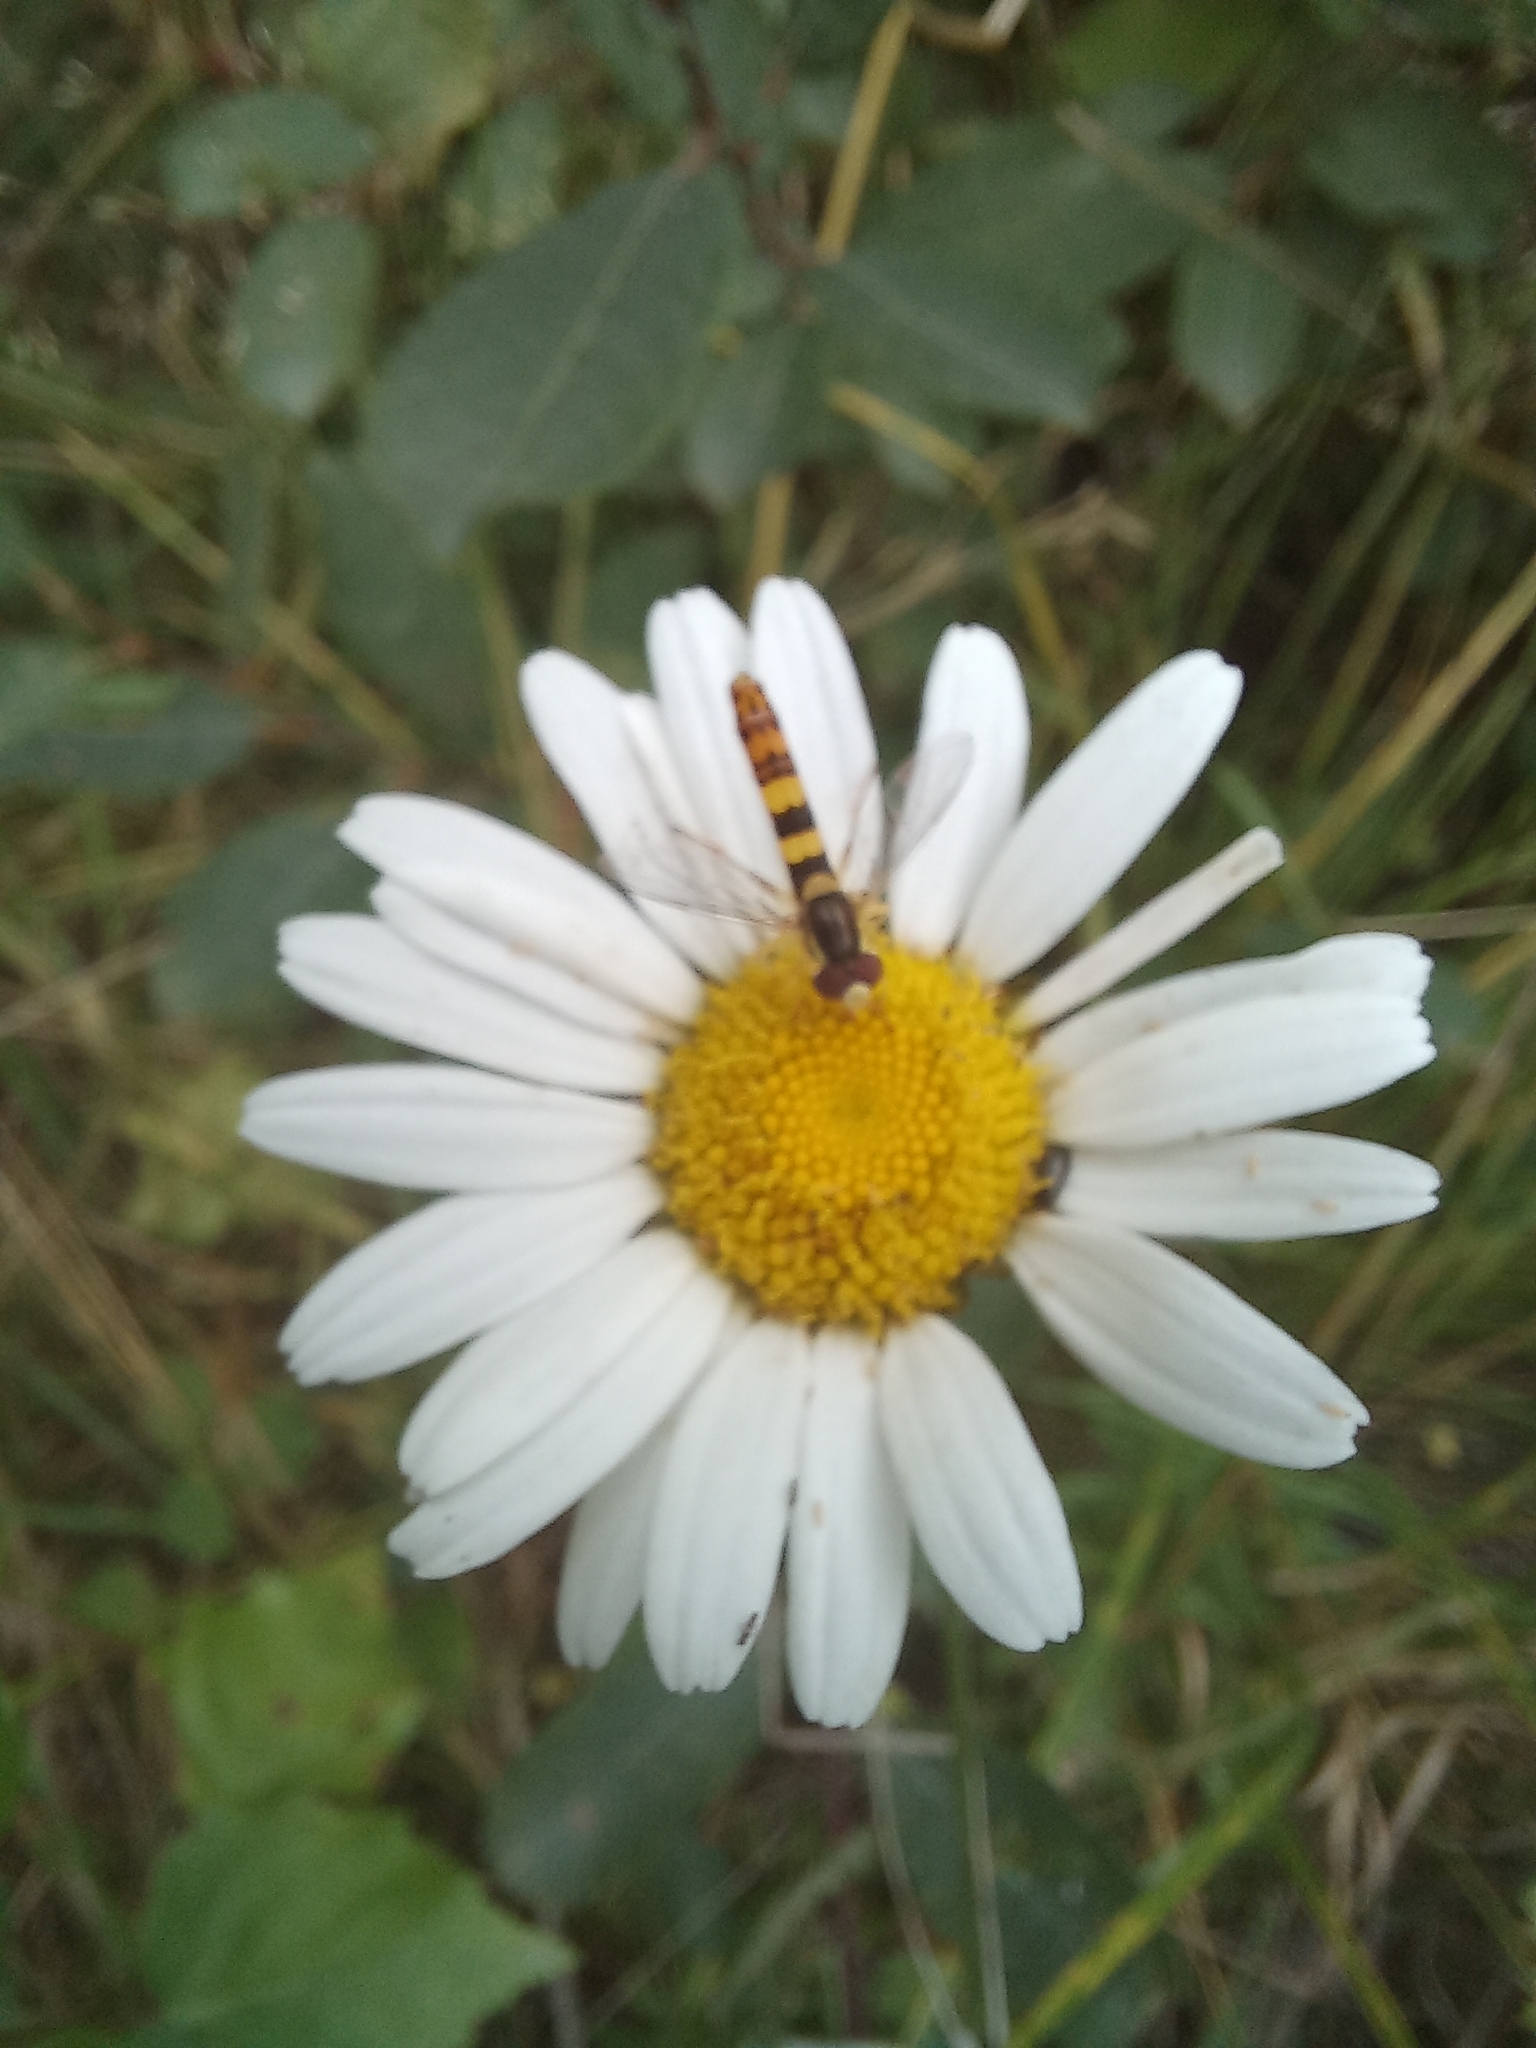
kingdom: Animalia
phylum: Arthropoda
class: Insecta
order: Diptera
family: Syrphidae
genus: Sphaerophoria
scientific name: Sphaerophoria scripta
